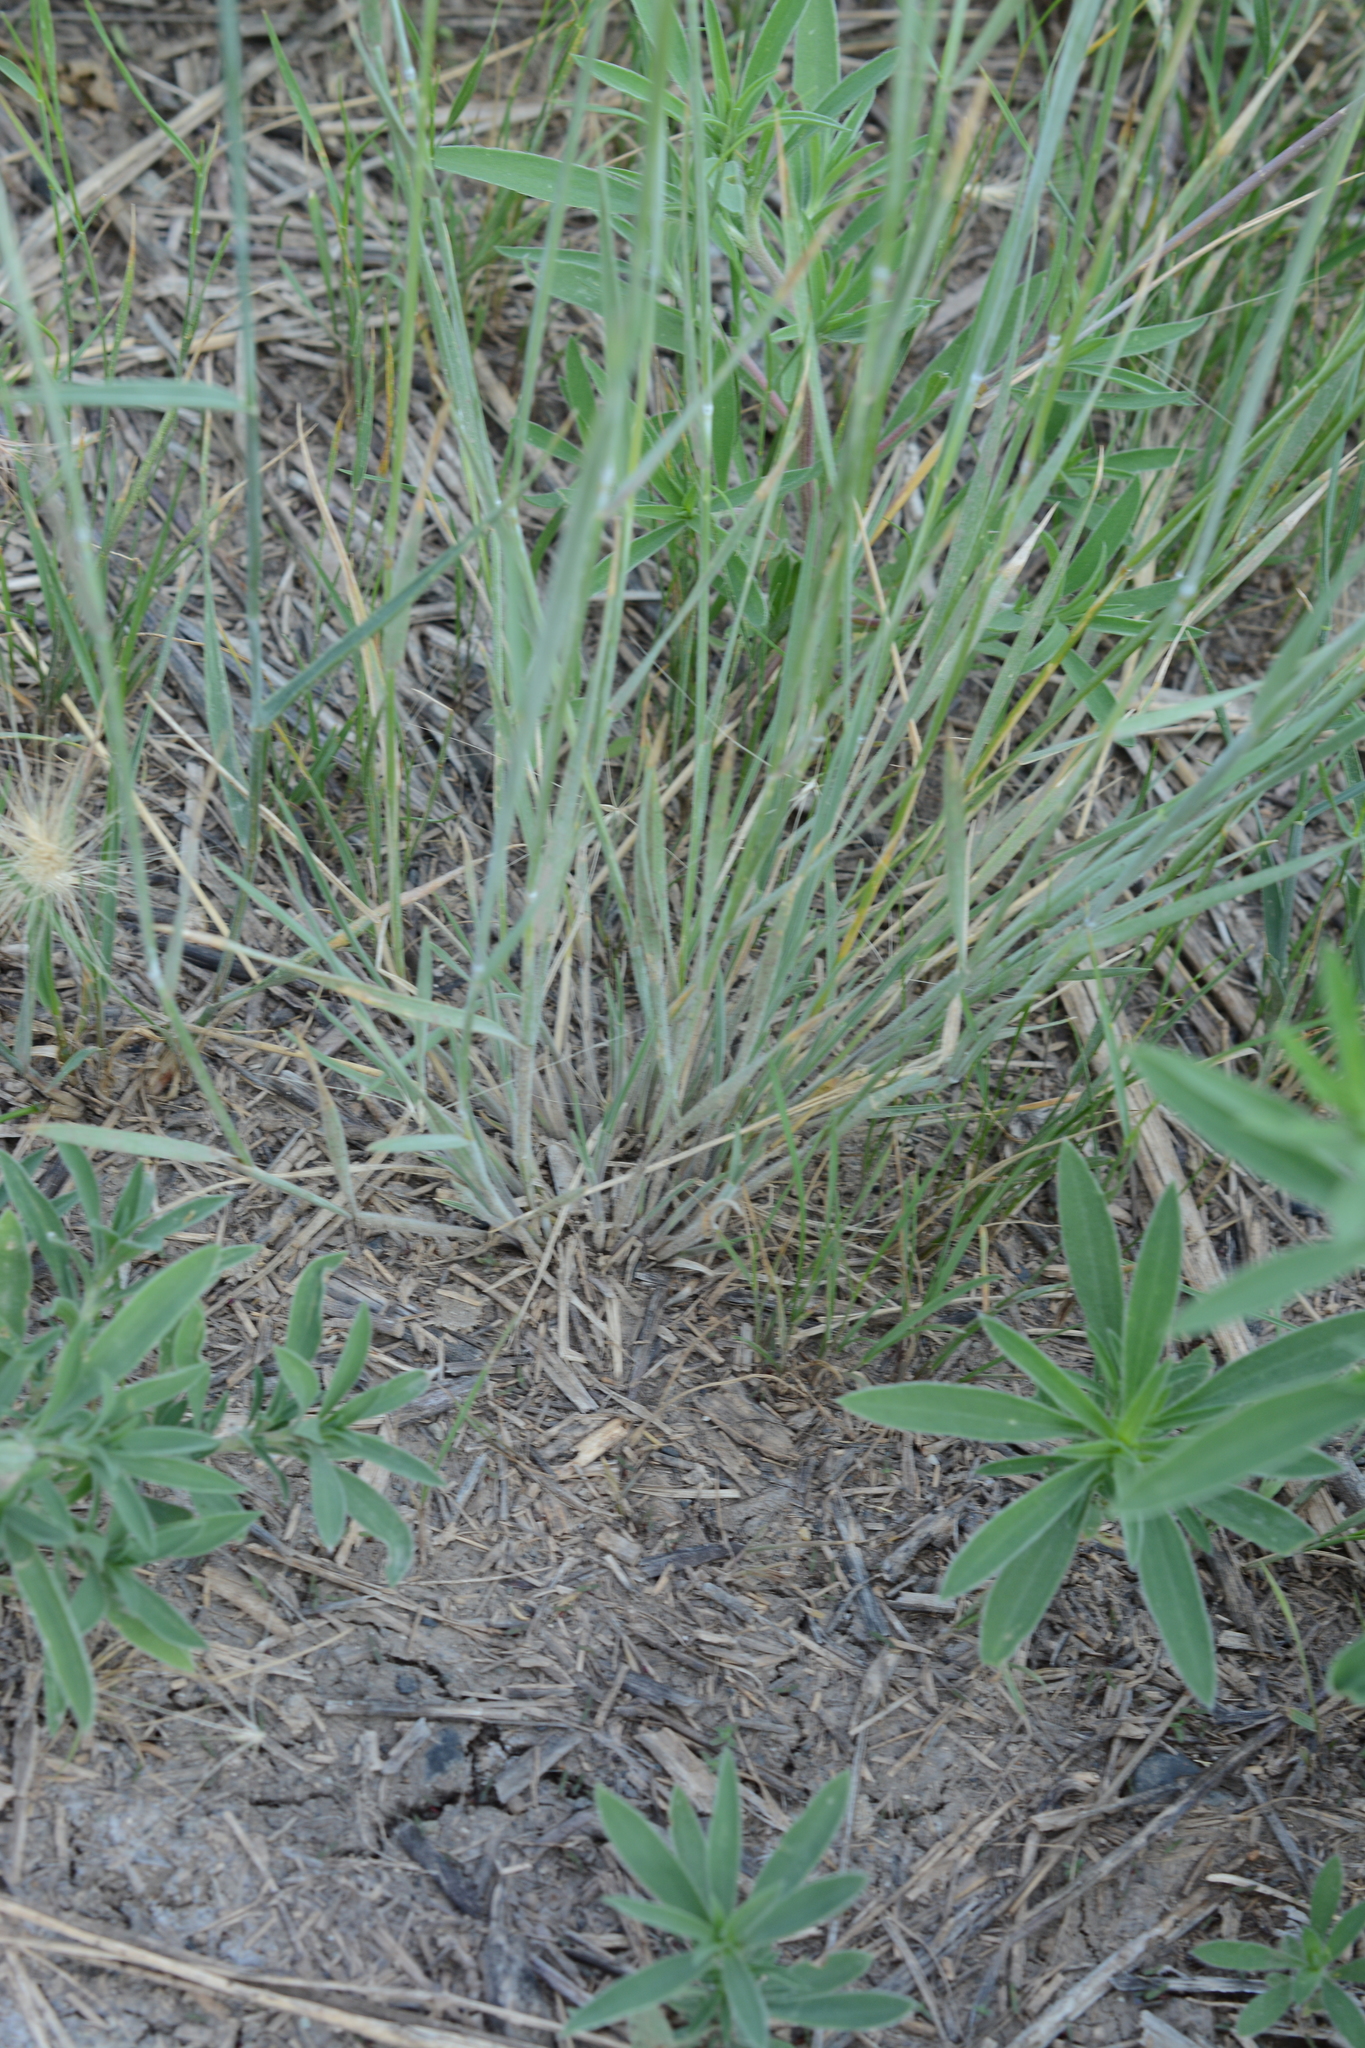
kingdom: Plantae
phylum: Tracheophyta
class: Liliopsida
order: Poales
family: Poaceae
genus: Hordeum
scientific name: Hordeum jubatum
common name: Foxtail barley
